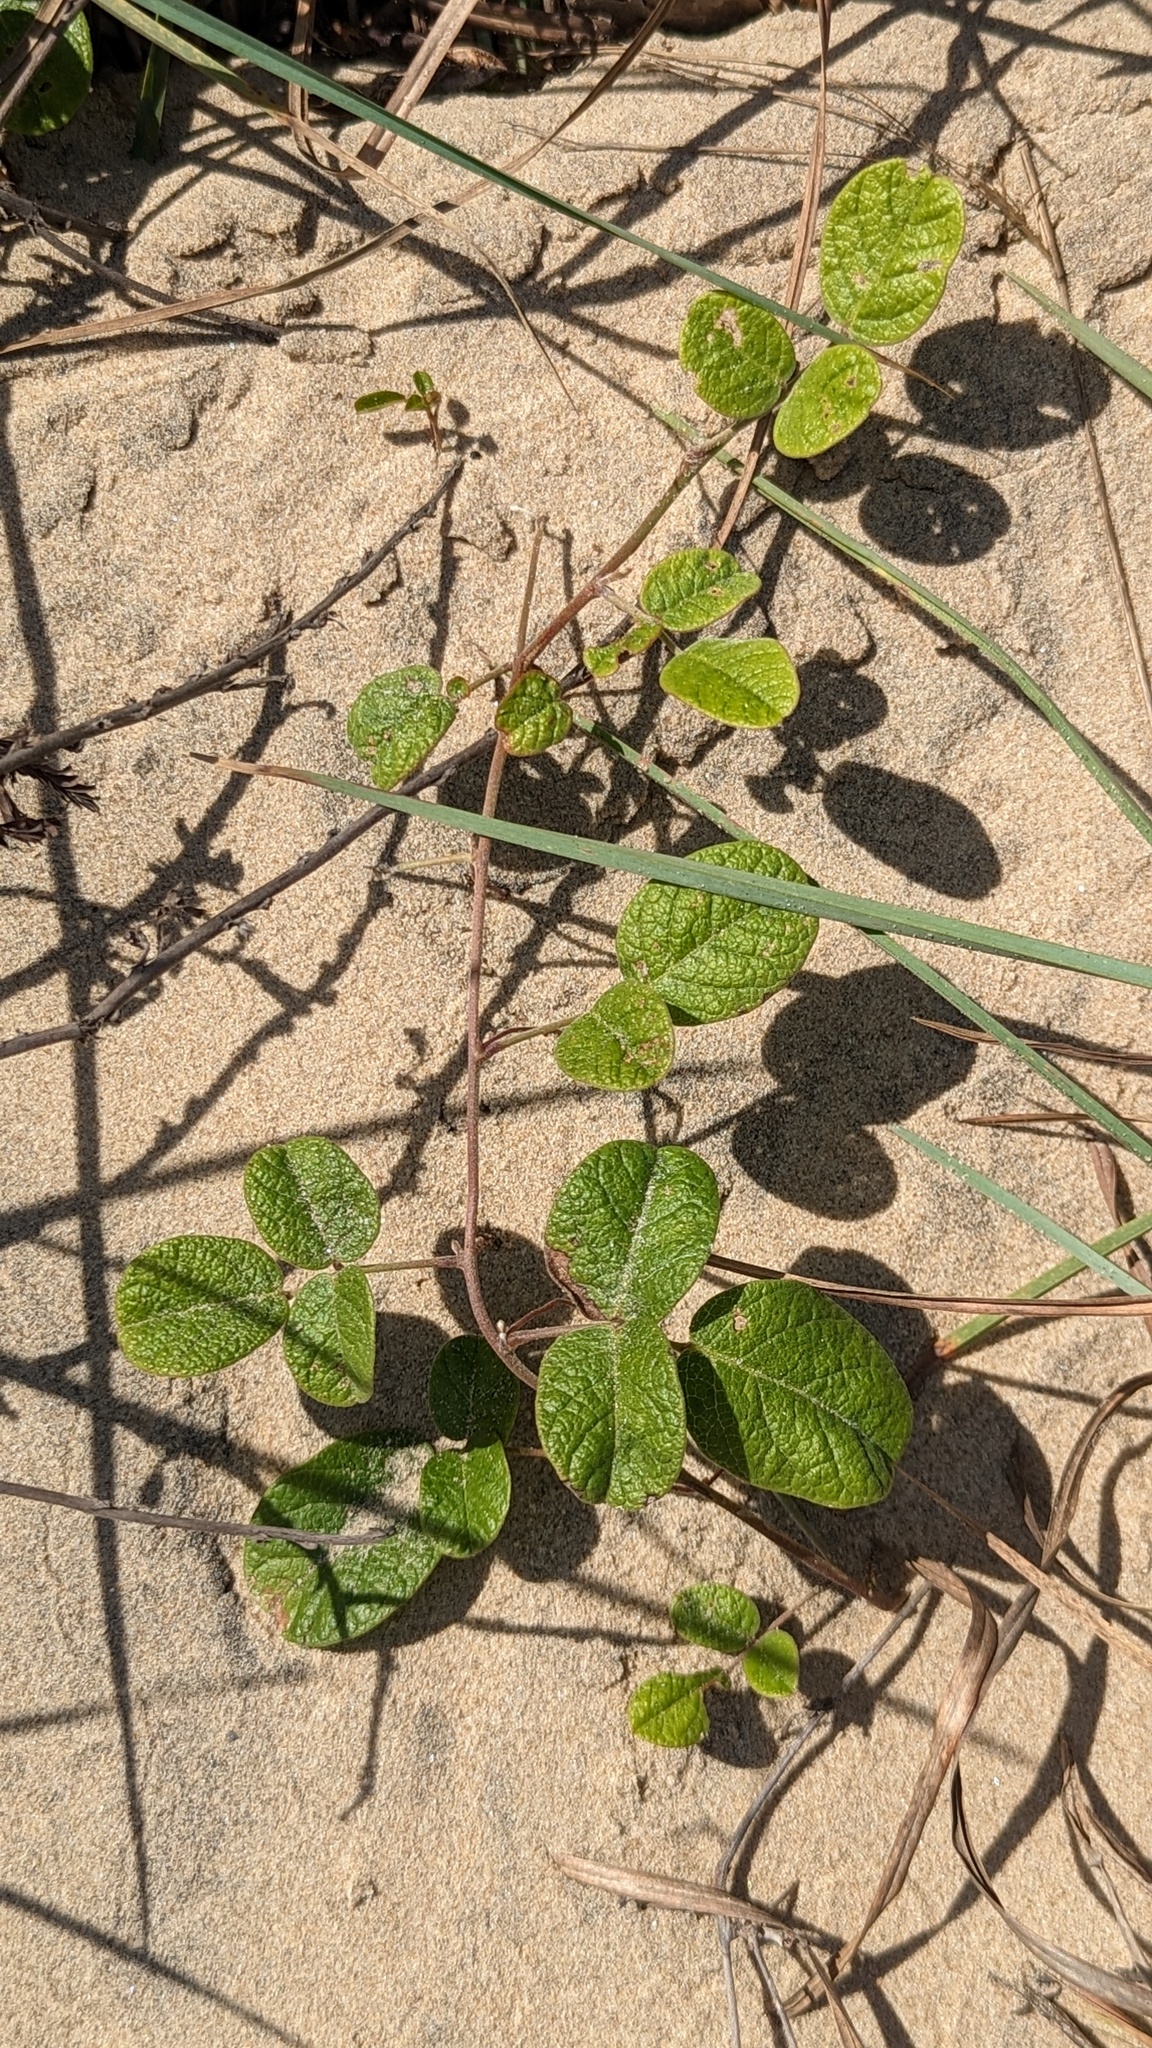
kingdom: Plantae
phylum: Tracheophyta
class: Magnoliopsida
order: Fabales
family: Fabaceae
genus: Rhynchosia
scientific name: Rhynchosia minima
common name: Least snoutbean
